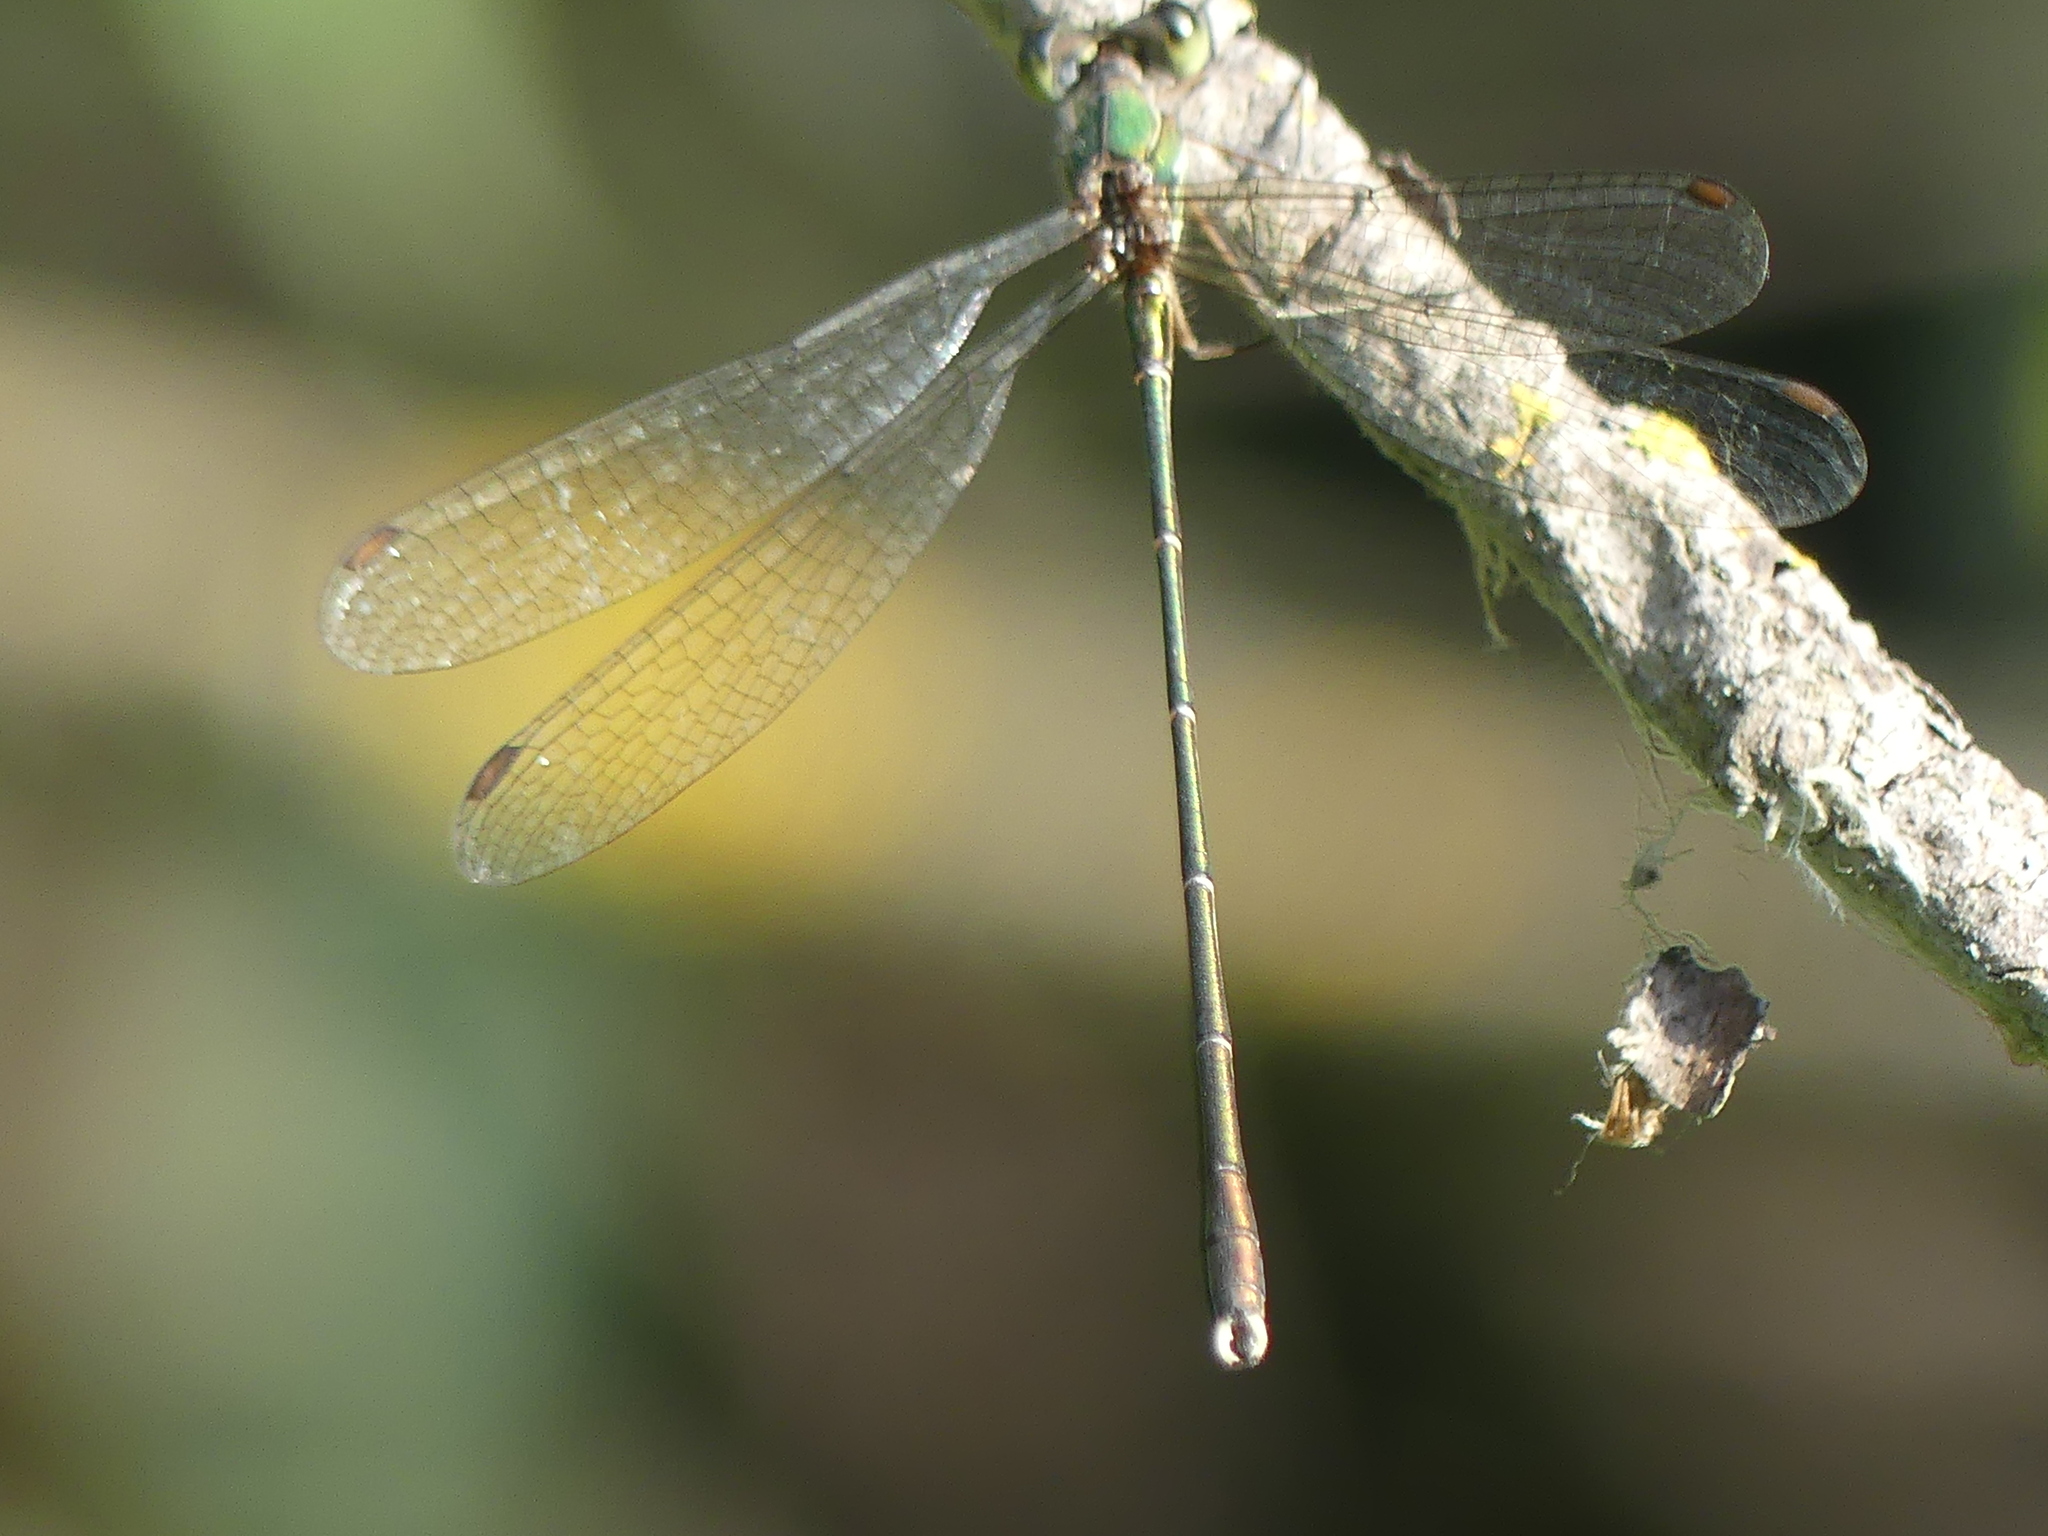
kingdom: Animalia
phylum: Arthropoda
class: Insecta
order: Odonata
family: Lestidae
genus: Chalcolestes
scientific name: Chalcolestes parvidens
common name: Eastern willow spreadwing
